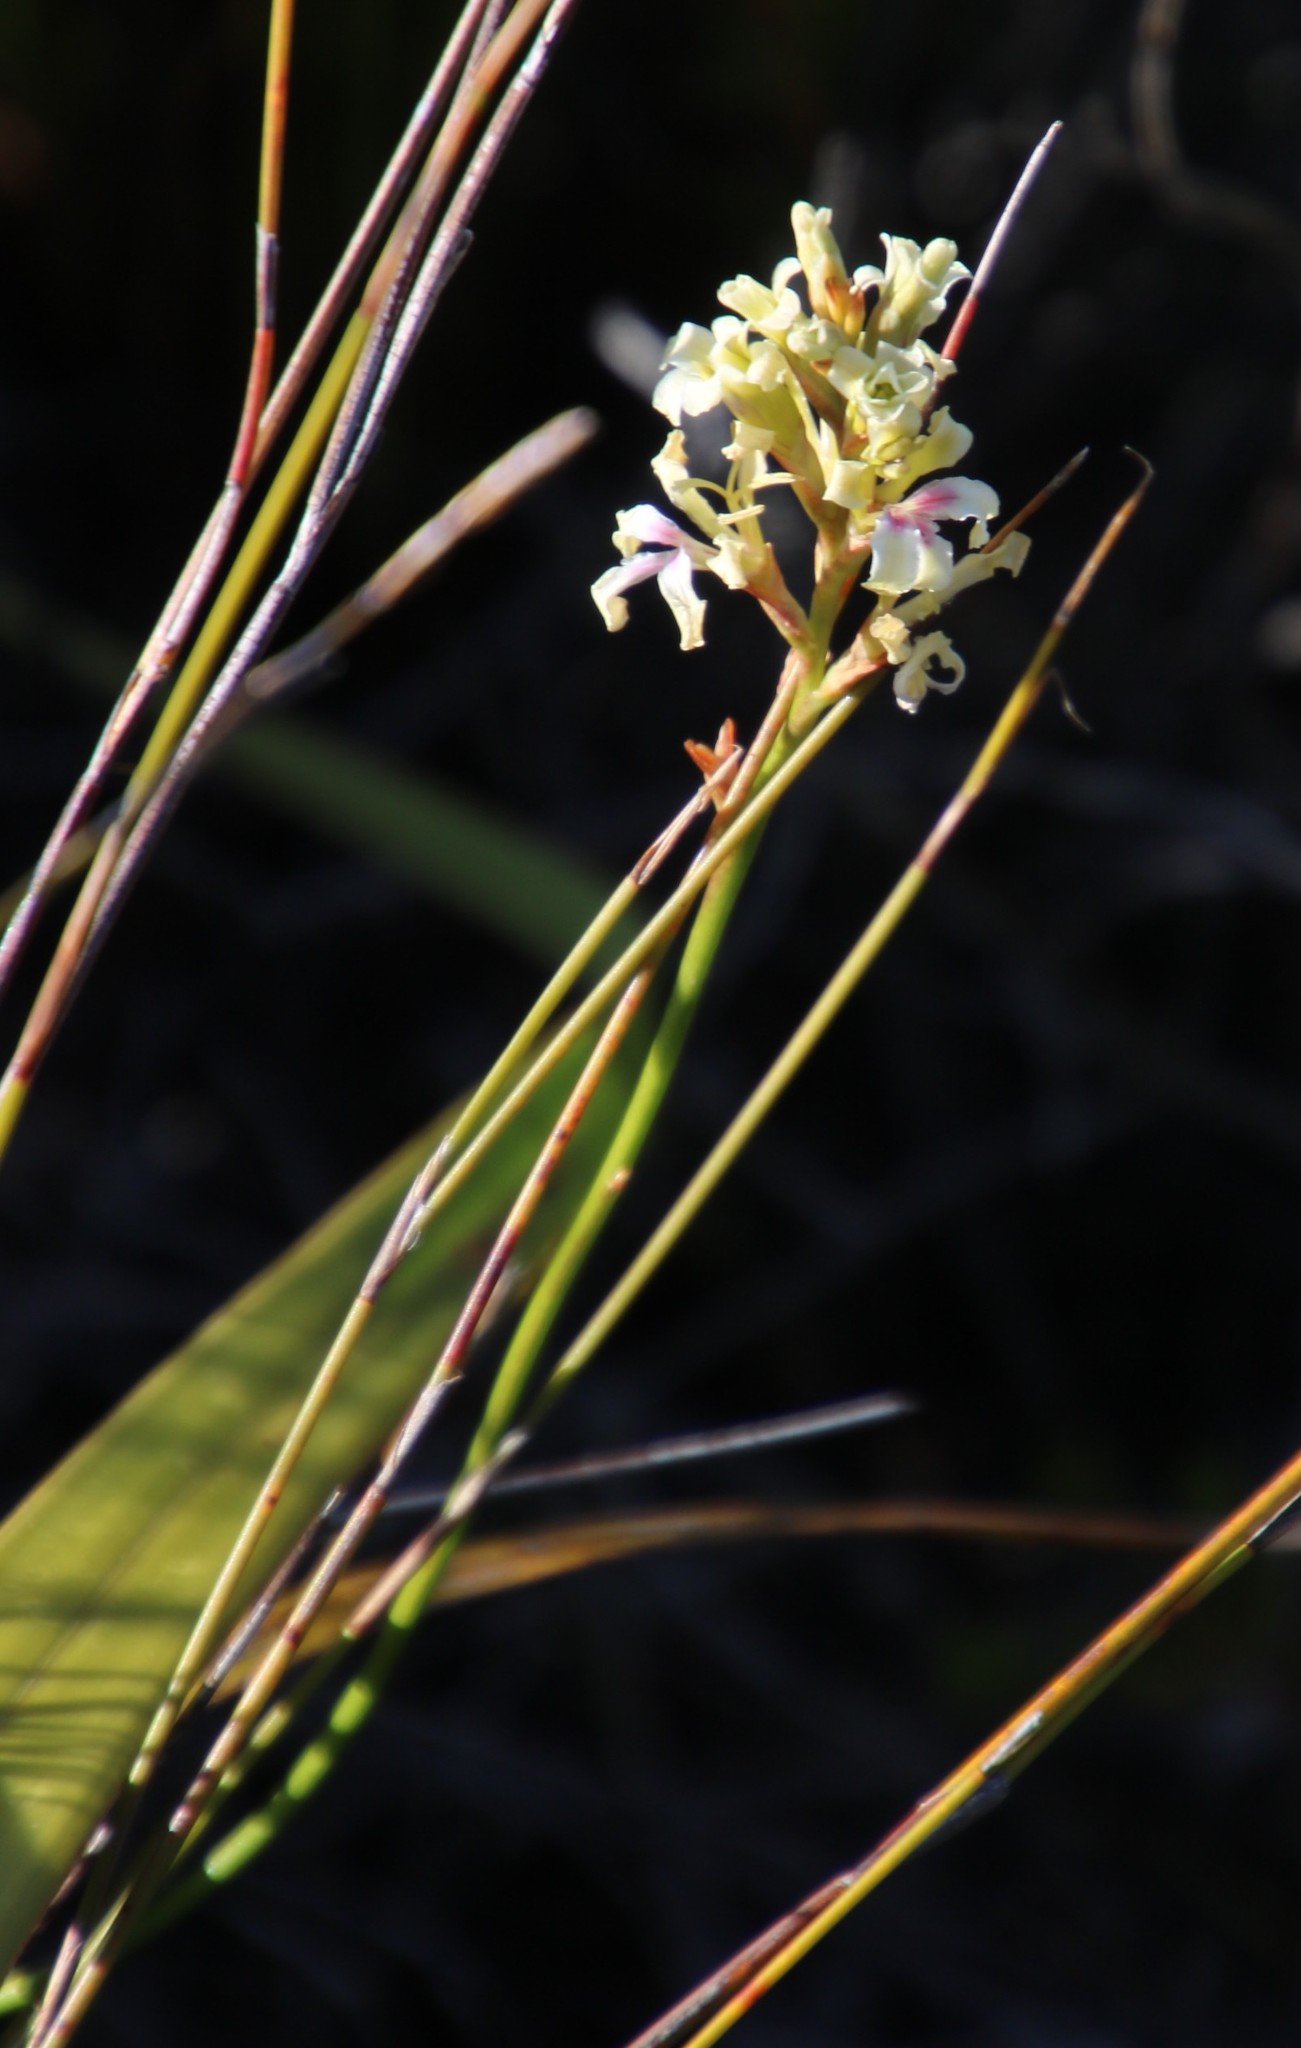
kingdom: Plantae
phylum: Tracheophyta
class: Liliopsida
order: Asparagales
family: Iridaceae
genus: Tritoniopsis
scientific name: Tritoniopsis unguicularis
